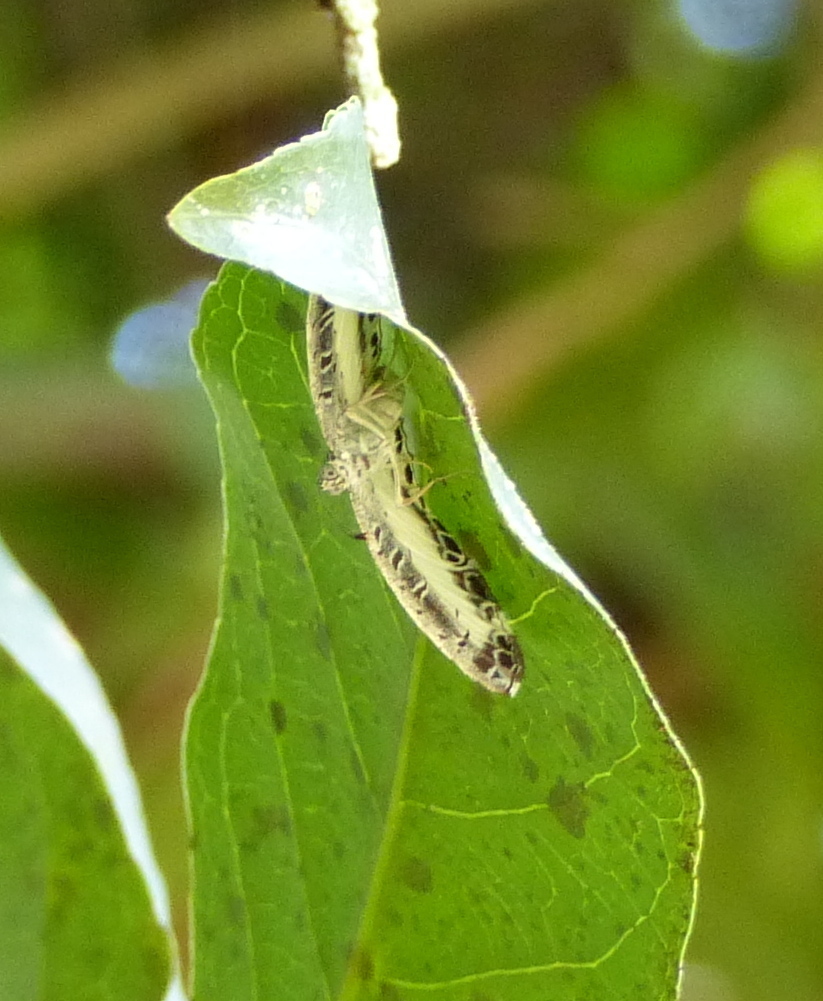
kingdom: Animalia
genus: Nymphidium
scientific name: Nymphidium mantus
